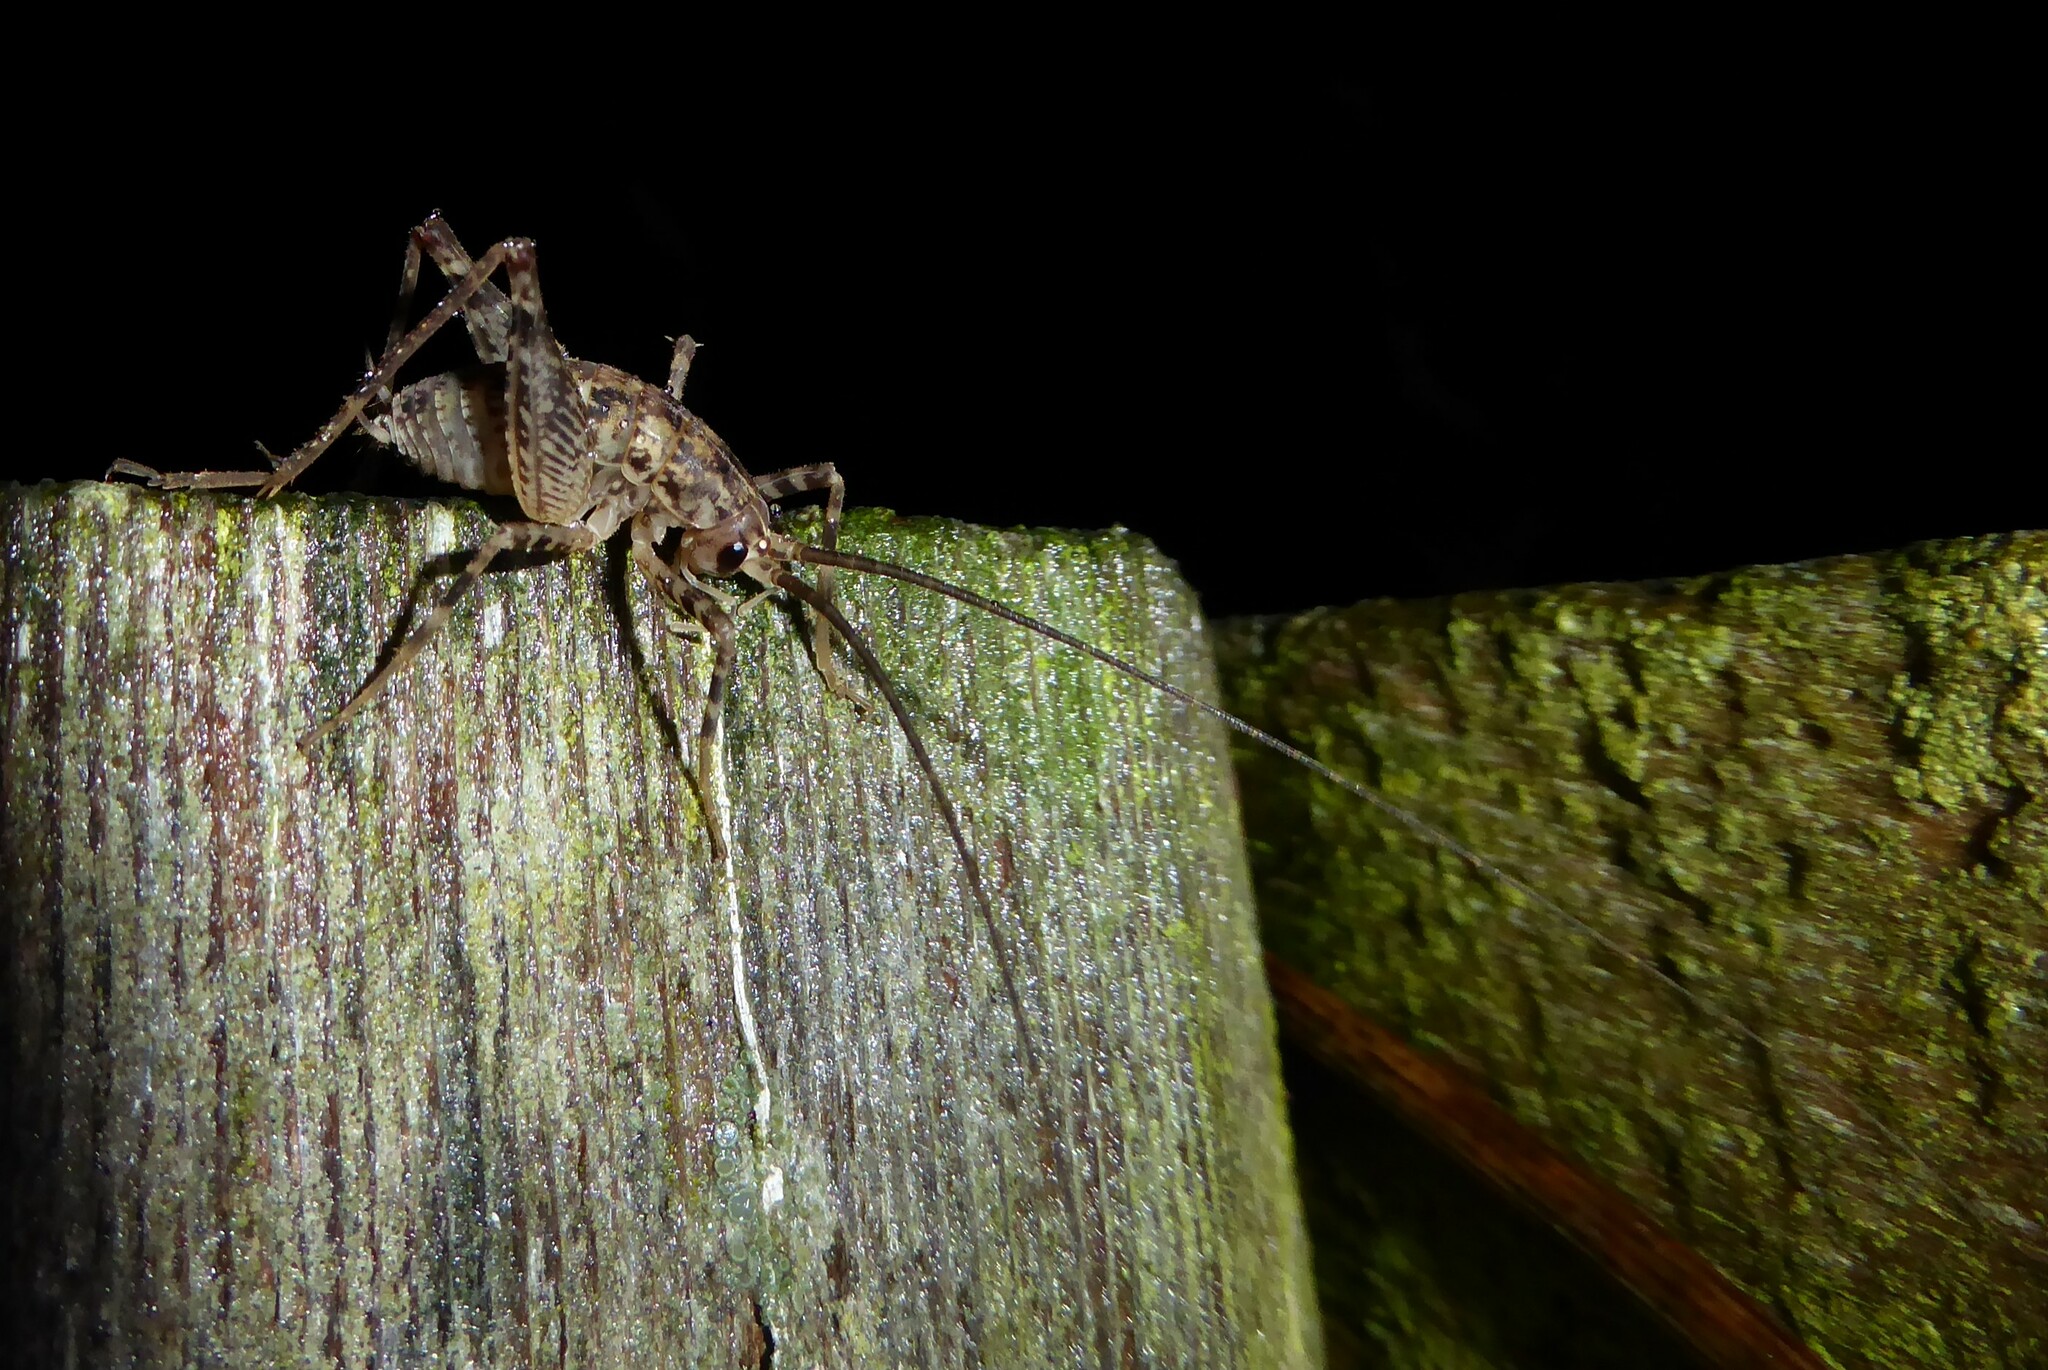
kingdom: Animalia
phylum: Arthropoda
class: Insecta
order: Orthoptera
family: Rhaphidophoridae
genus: Pleioplectron
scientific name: Pleioplectron simplex
